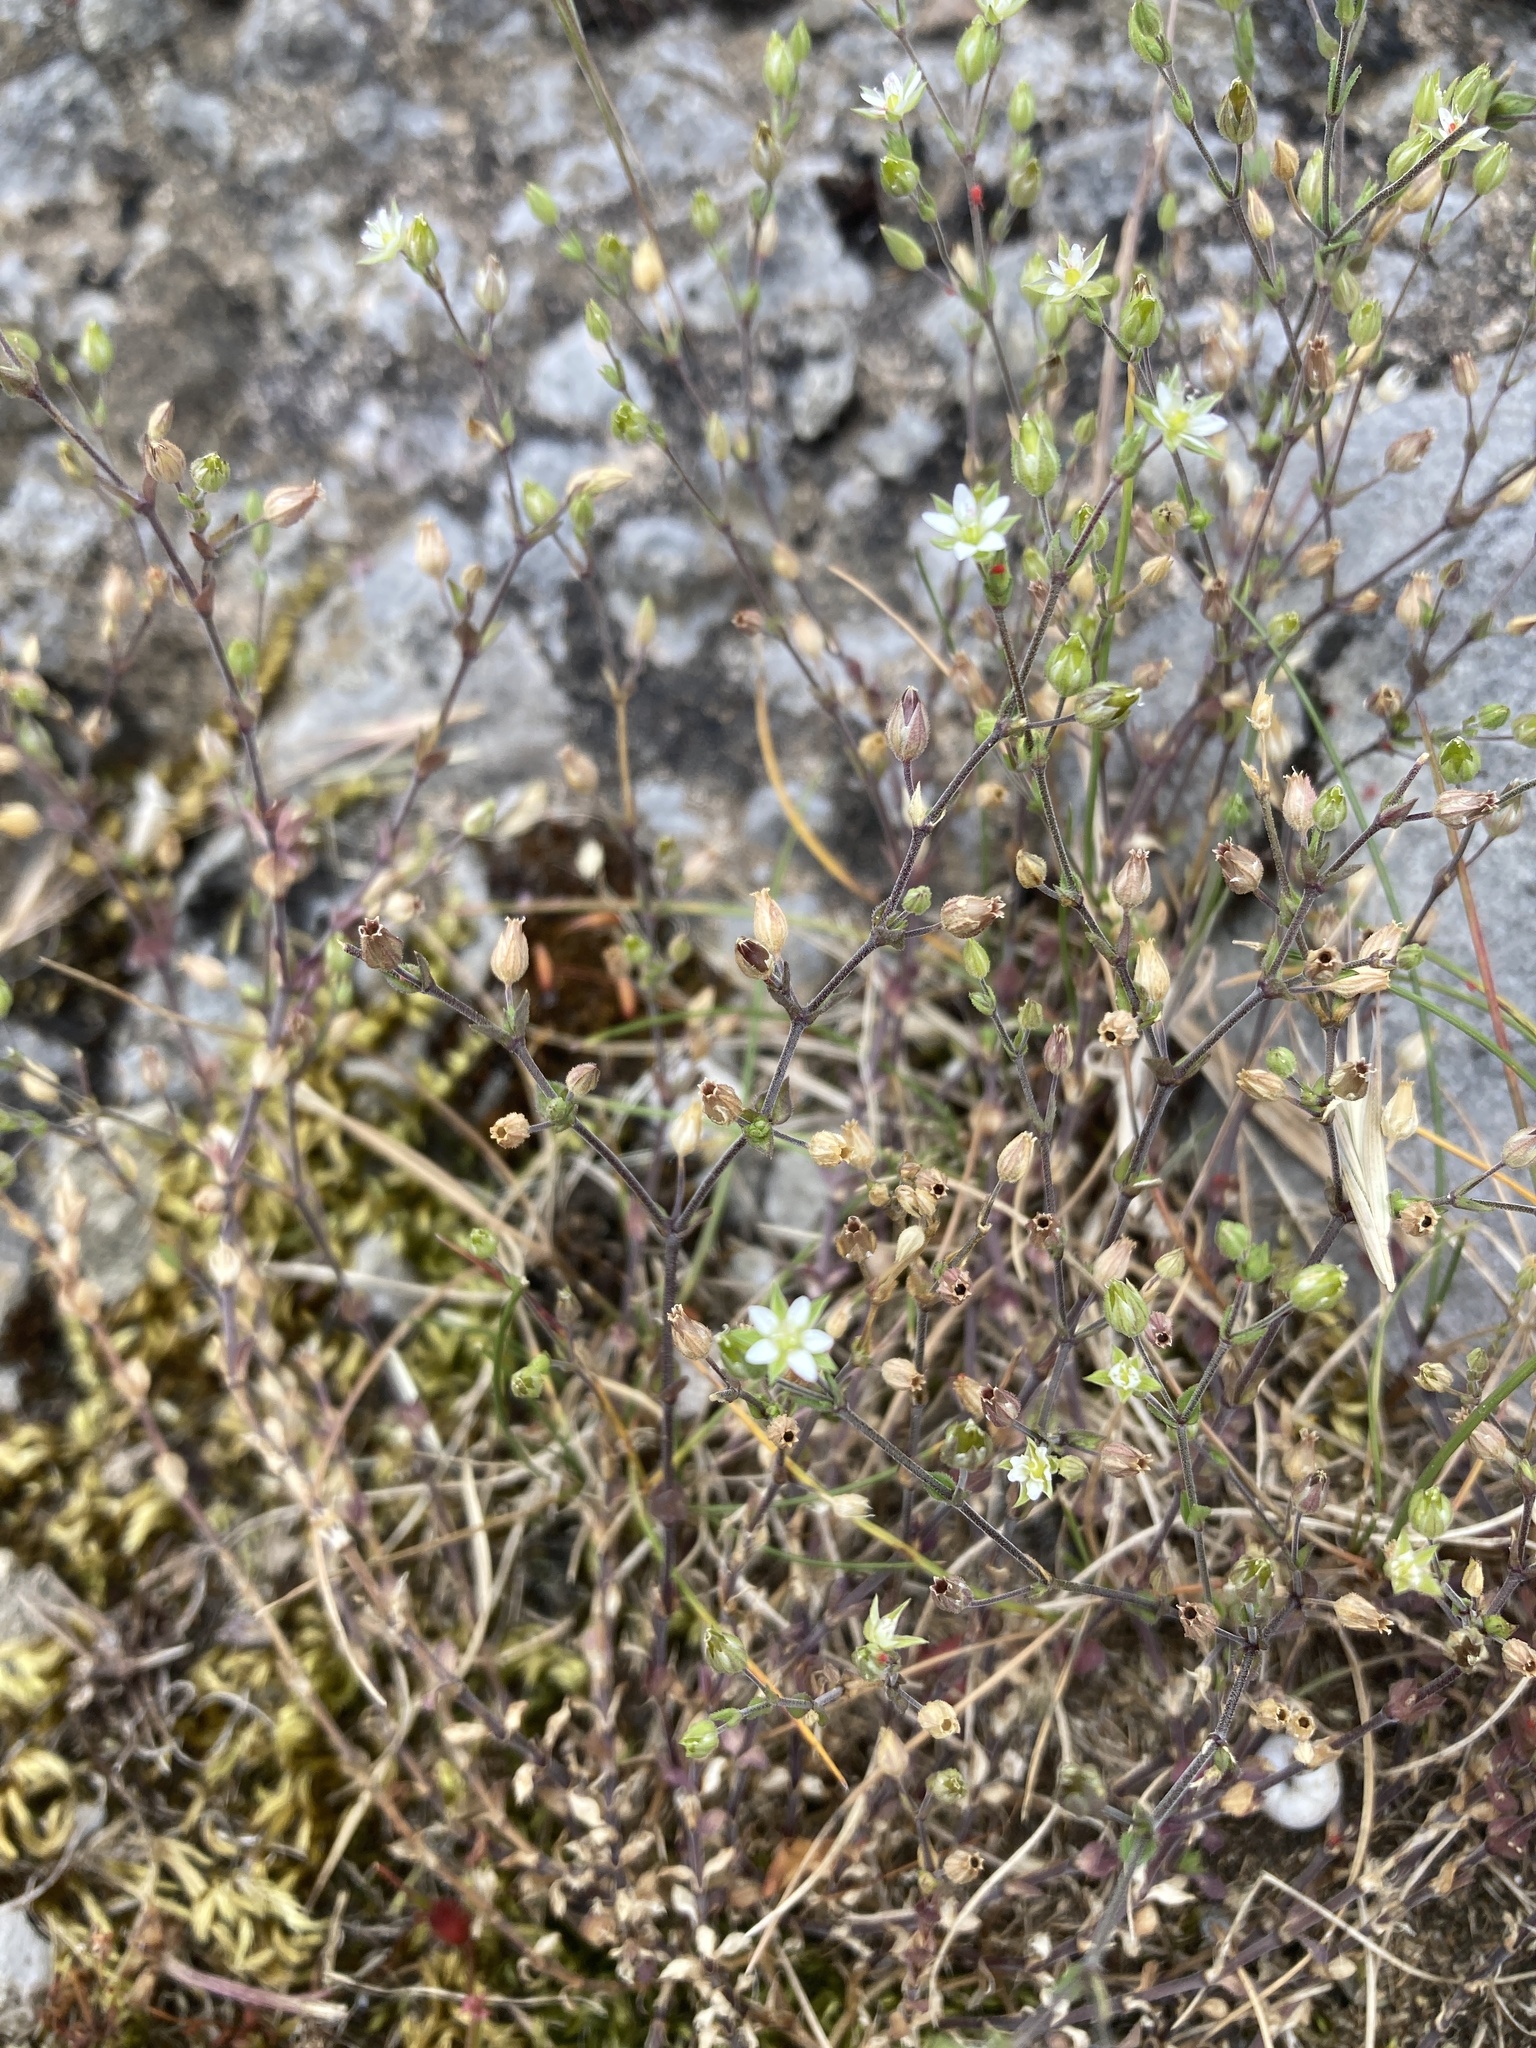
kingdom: Plantae
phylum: Tracheophyta
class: Magnoliopsida
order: Caryophyllales
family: Caryophyllaceae
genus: Arenaria
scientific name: Arenaria serpyllifolia
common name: Thyme-leaved sandwort
